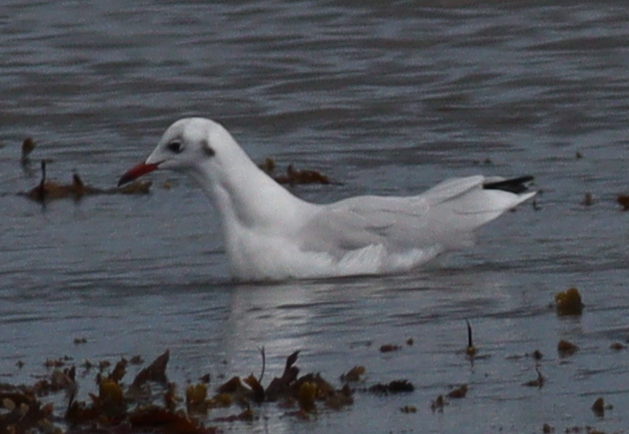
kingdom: Animalia
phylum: Chordata
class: Aves
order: Charadriiformes
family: Laridae
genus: Chroicocephalus
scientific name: Chroicocephalus ridibundus
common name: Black-headed gull
